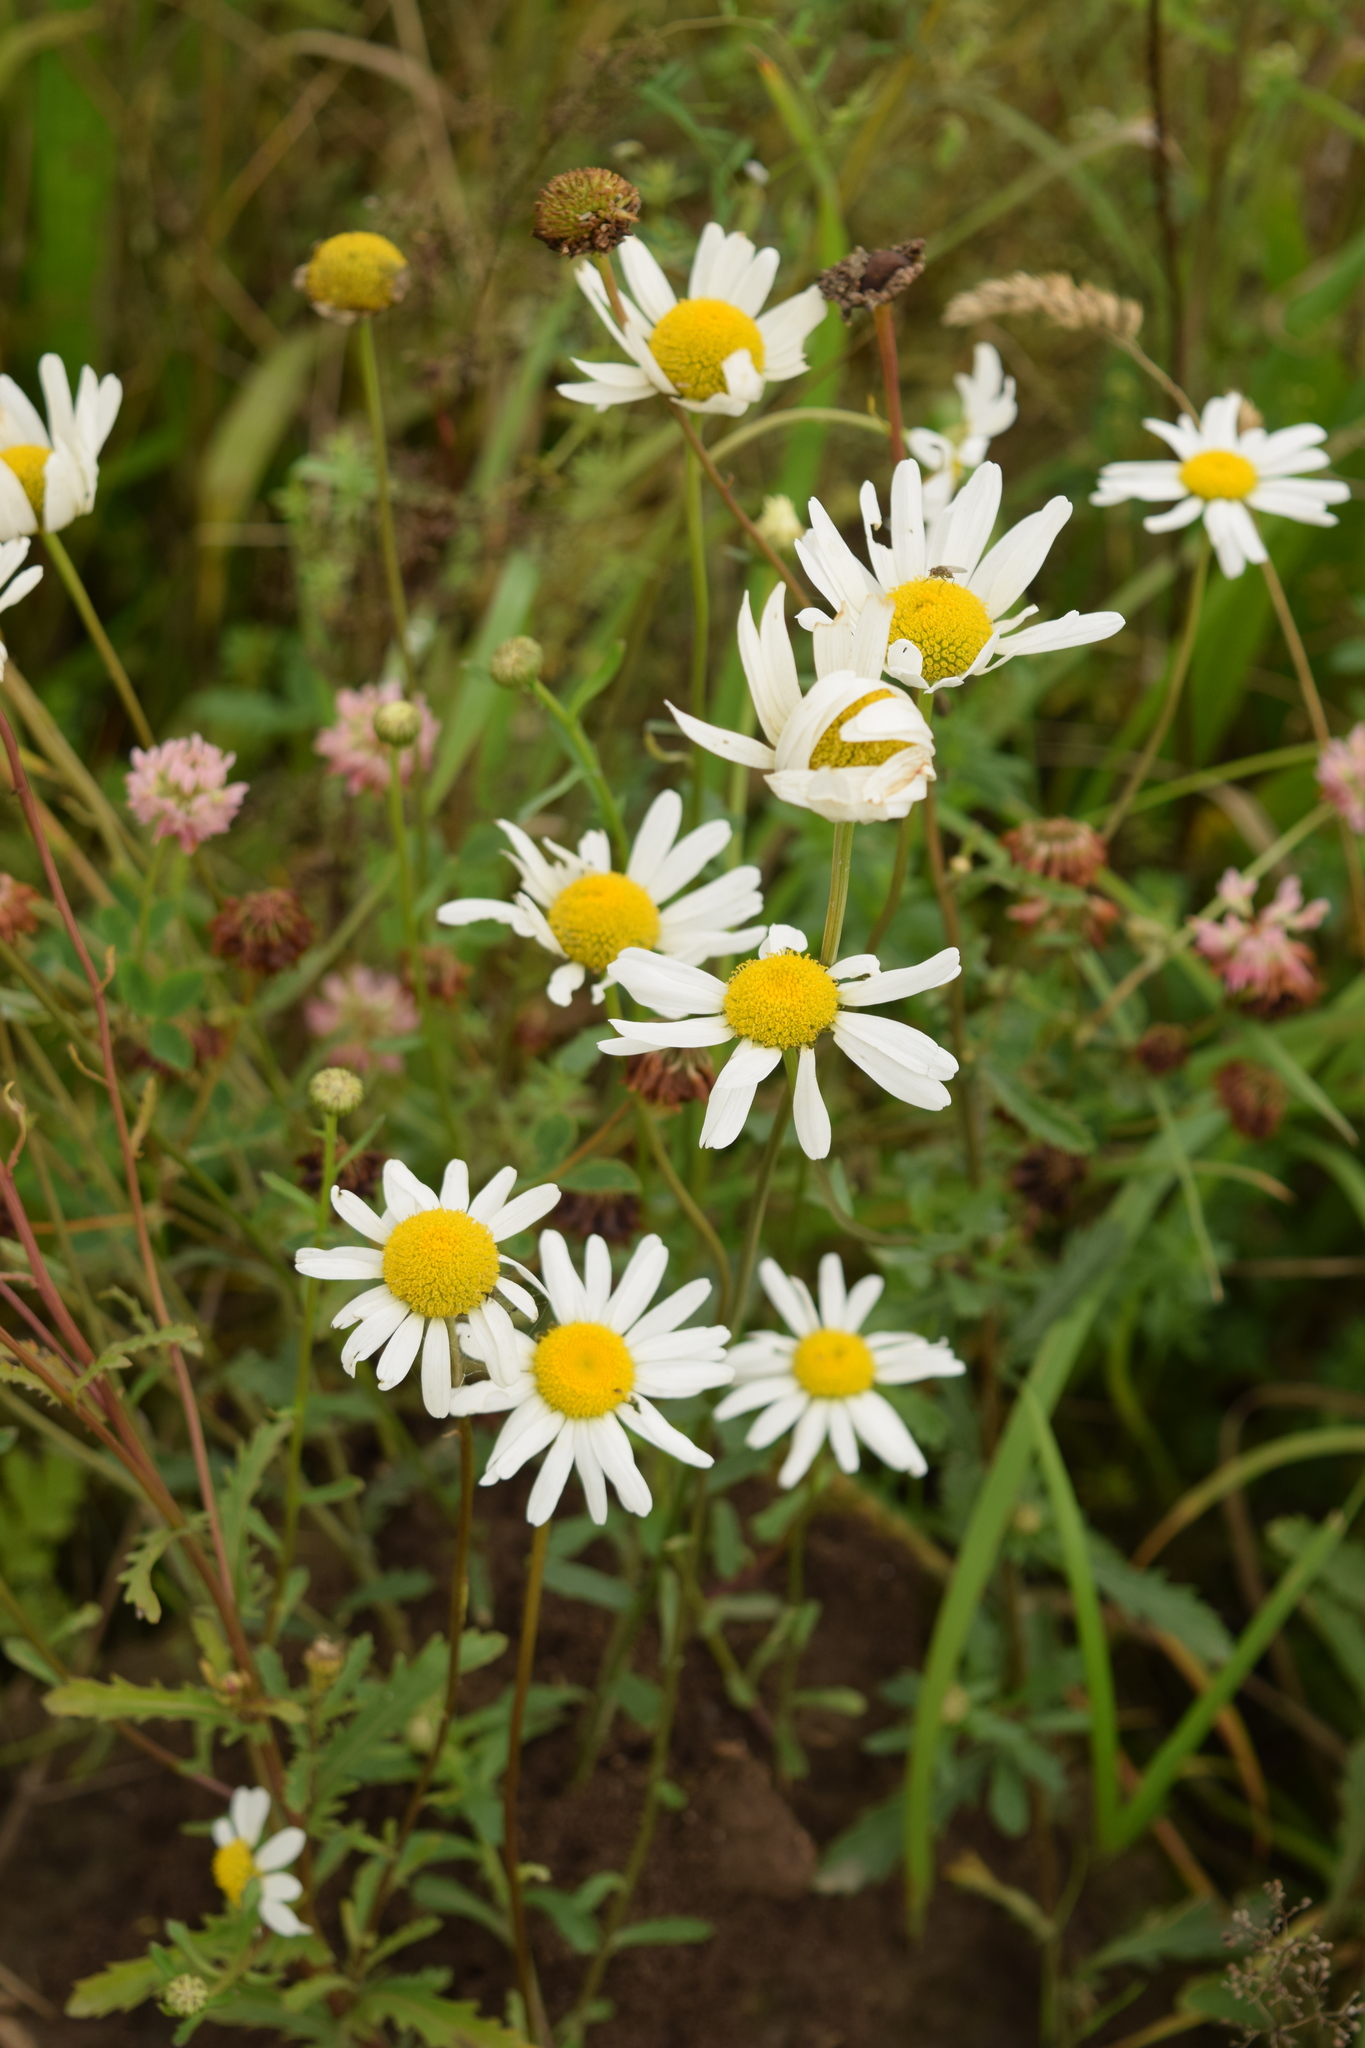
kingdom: Plantae
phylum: Tracheophyta
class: Magnoliopsida
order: Asterales
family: Asteraceae
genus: Leucanthemum
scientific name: Leucanthemum vulgare
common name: Oxeye daisy
